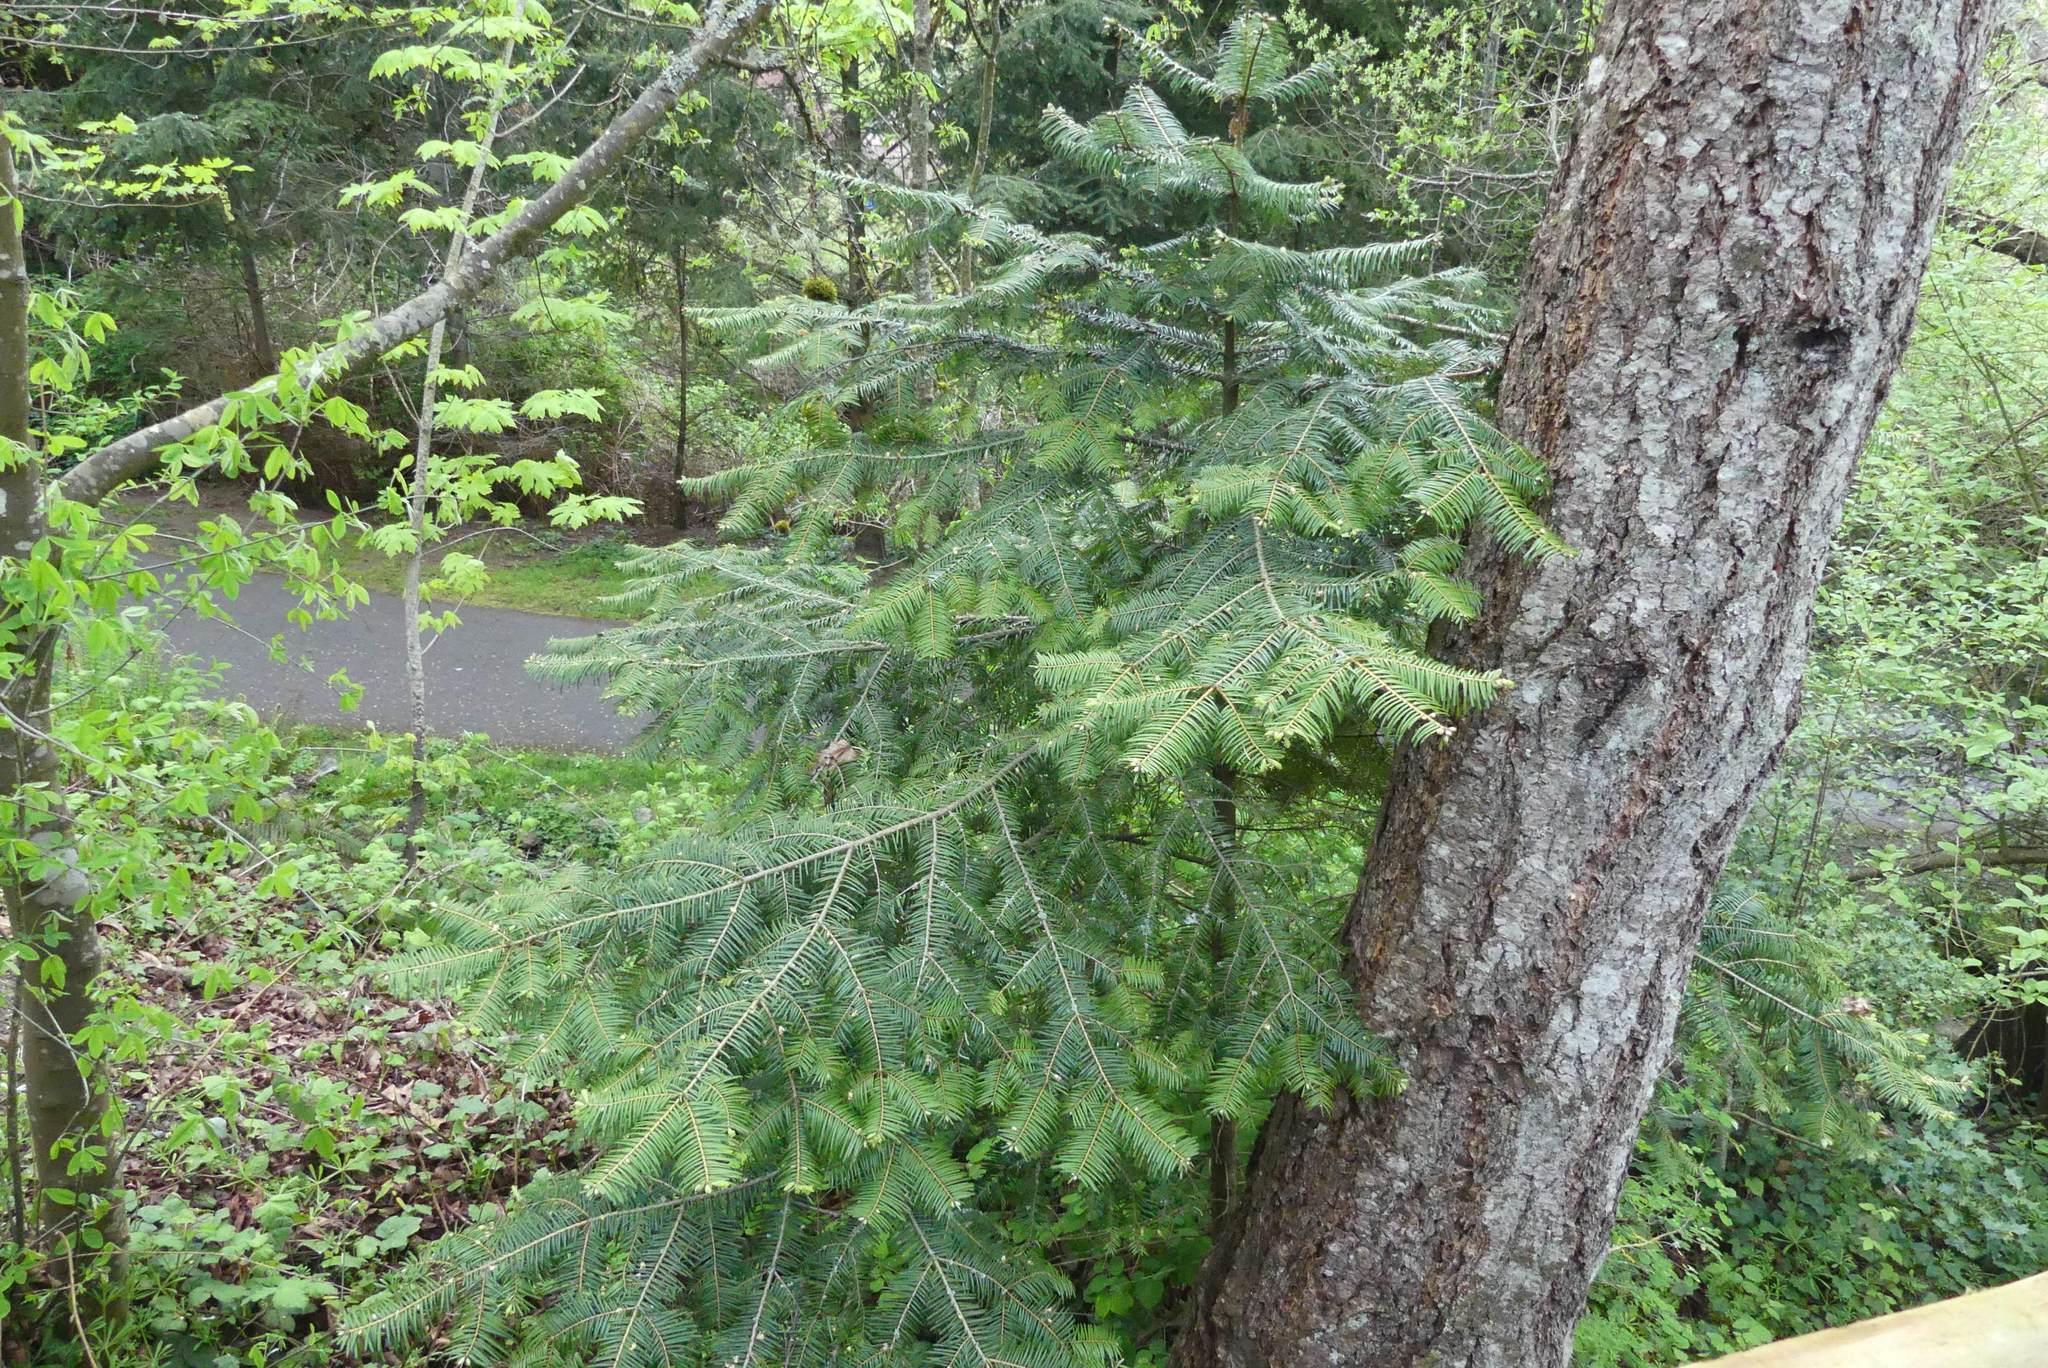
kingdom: Plantae
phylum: Tracheophyta
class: Pinopsida
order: Pinales
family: Pinaceae
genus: Abies
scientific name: Abies grandis
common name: Giant fir
